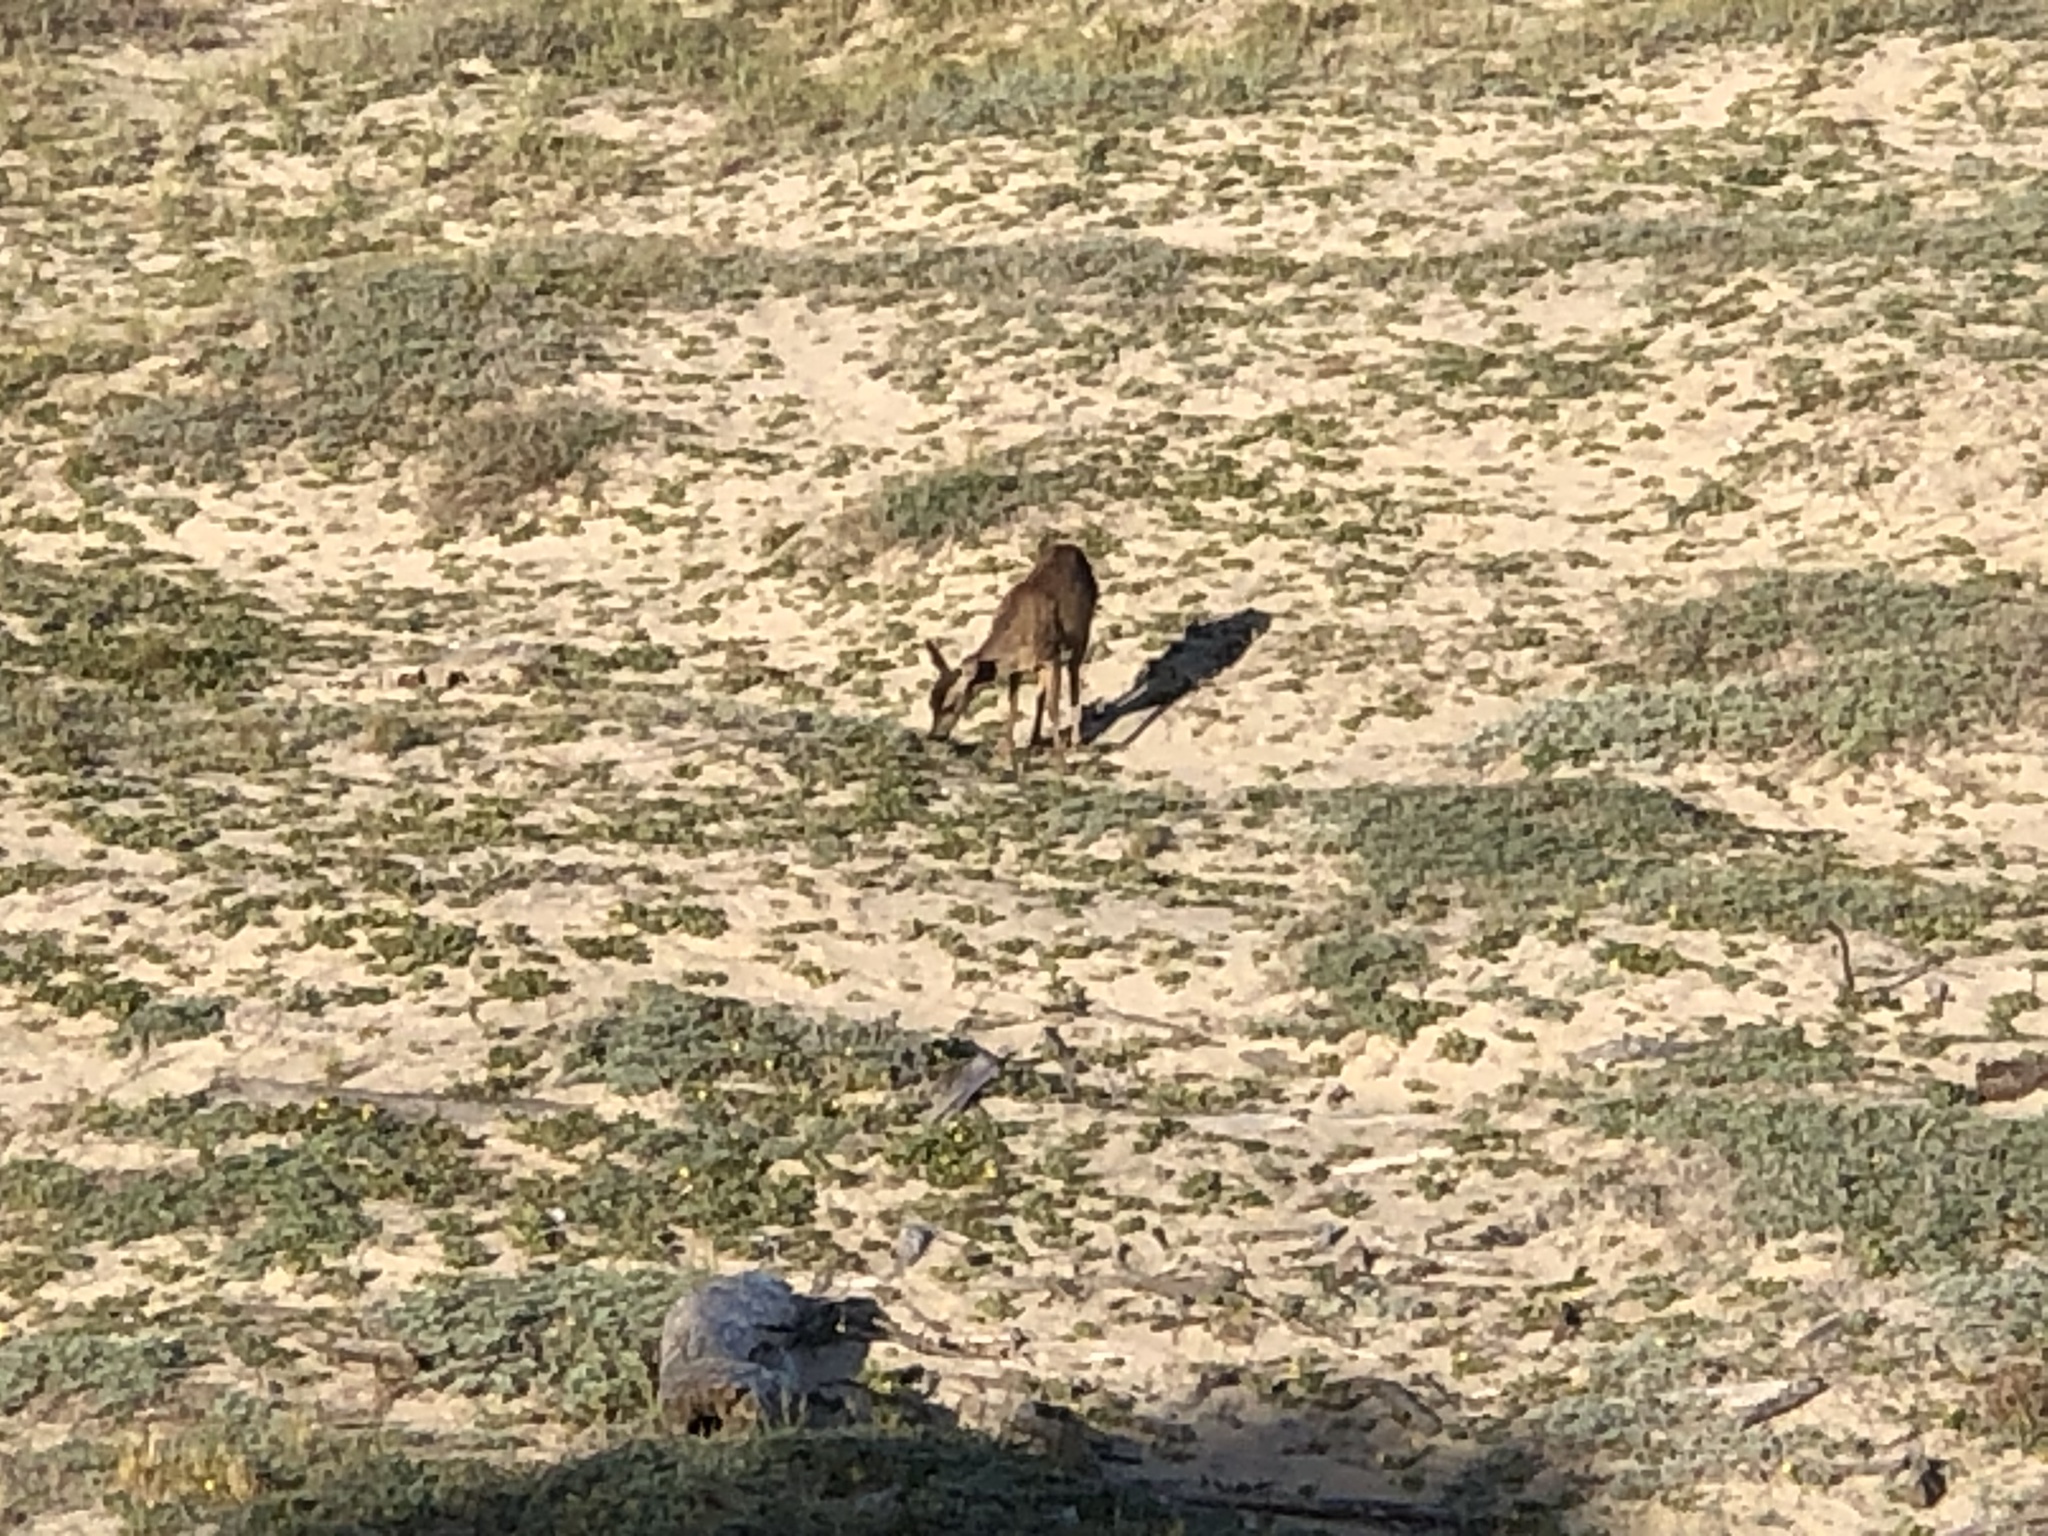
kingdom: Animalia
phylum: Chordata
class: Mammalia
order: Artiodactyla
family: Cervidae
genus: Odocoileus
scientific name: Odocoileus hemionus
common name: Mule deer
